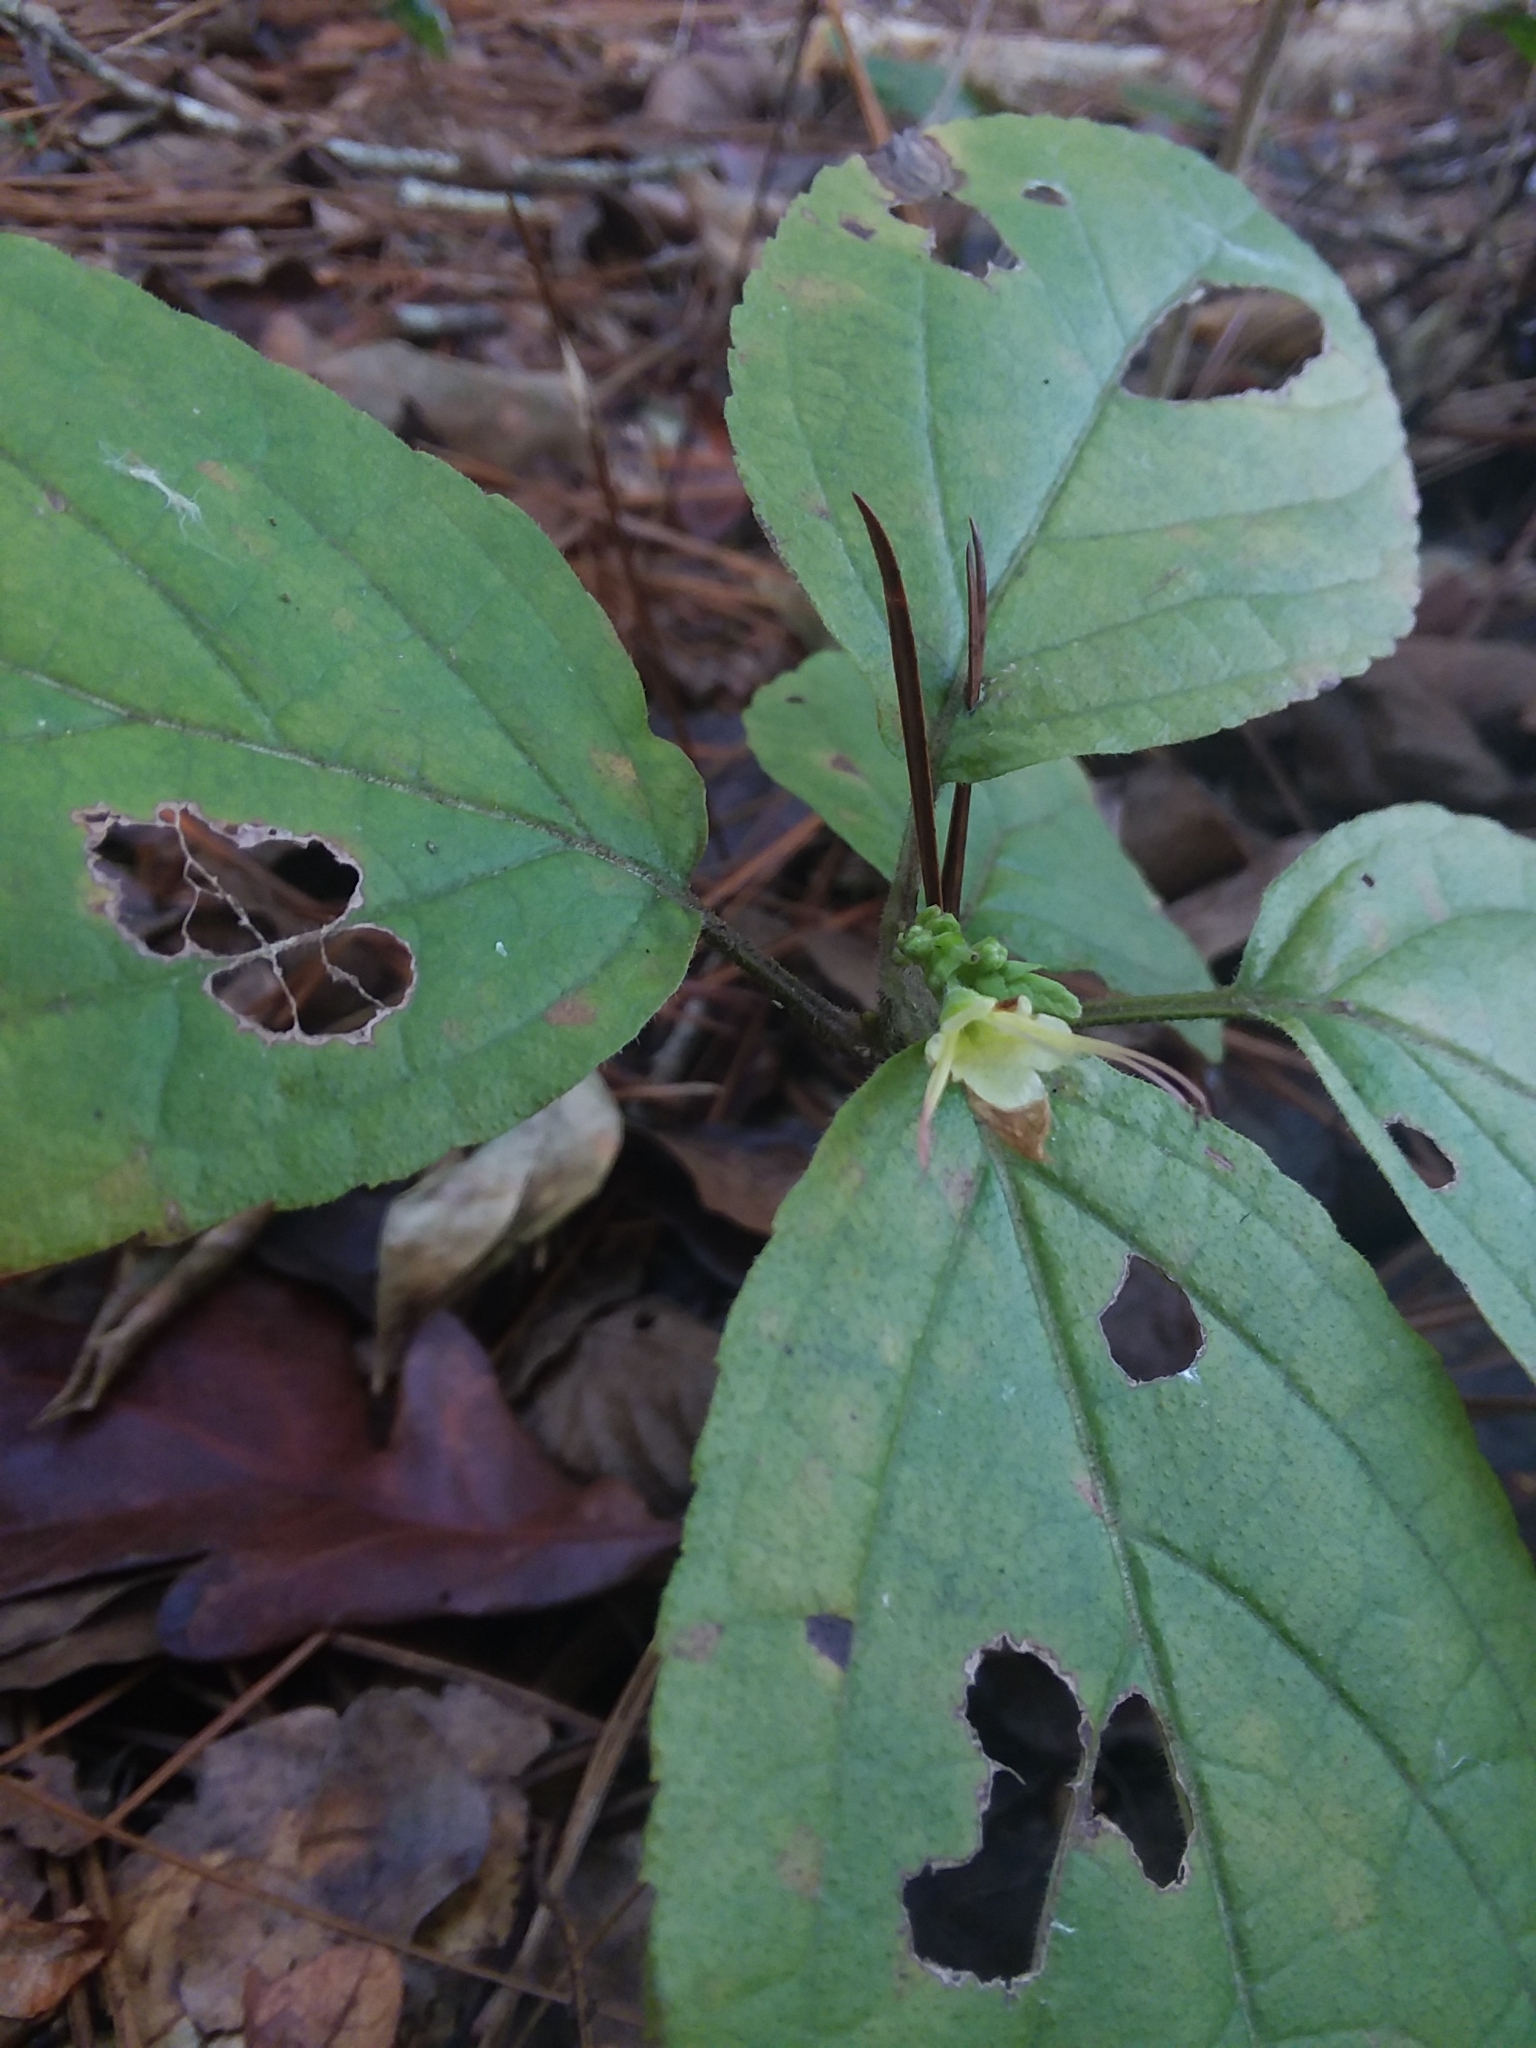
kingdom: Plantae
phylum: Tracheophyta
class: Magnoliopsida
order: Lamiales
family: Lamiaceae
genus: Collinsonia
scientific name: Collinsonia anisata
